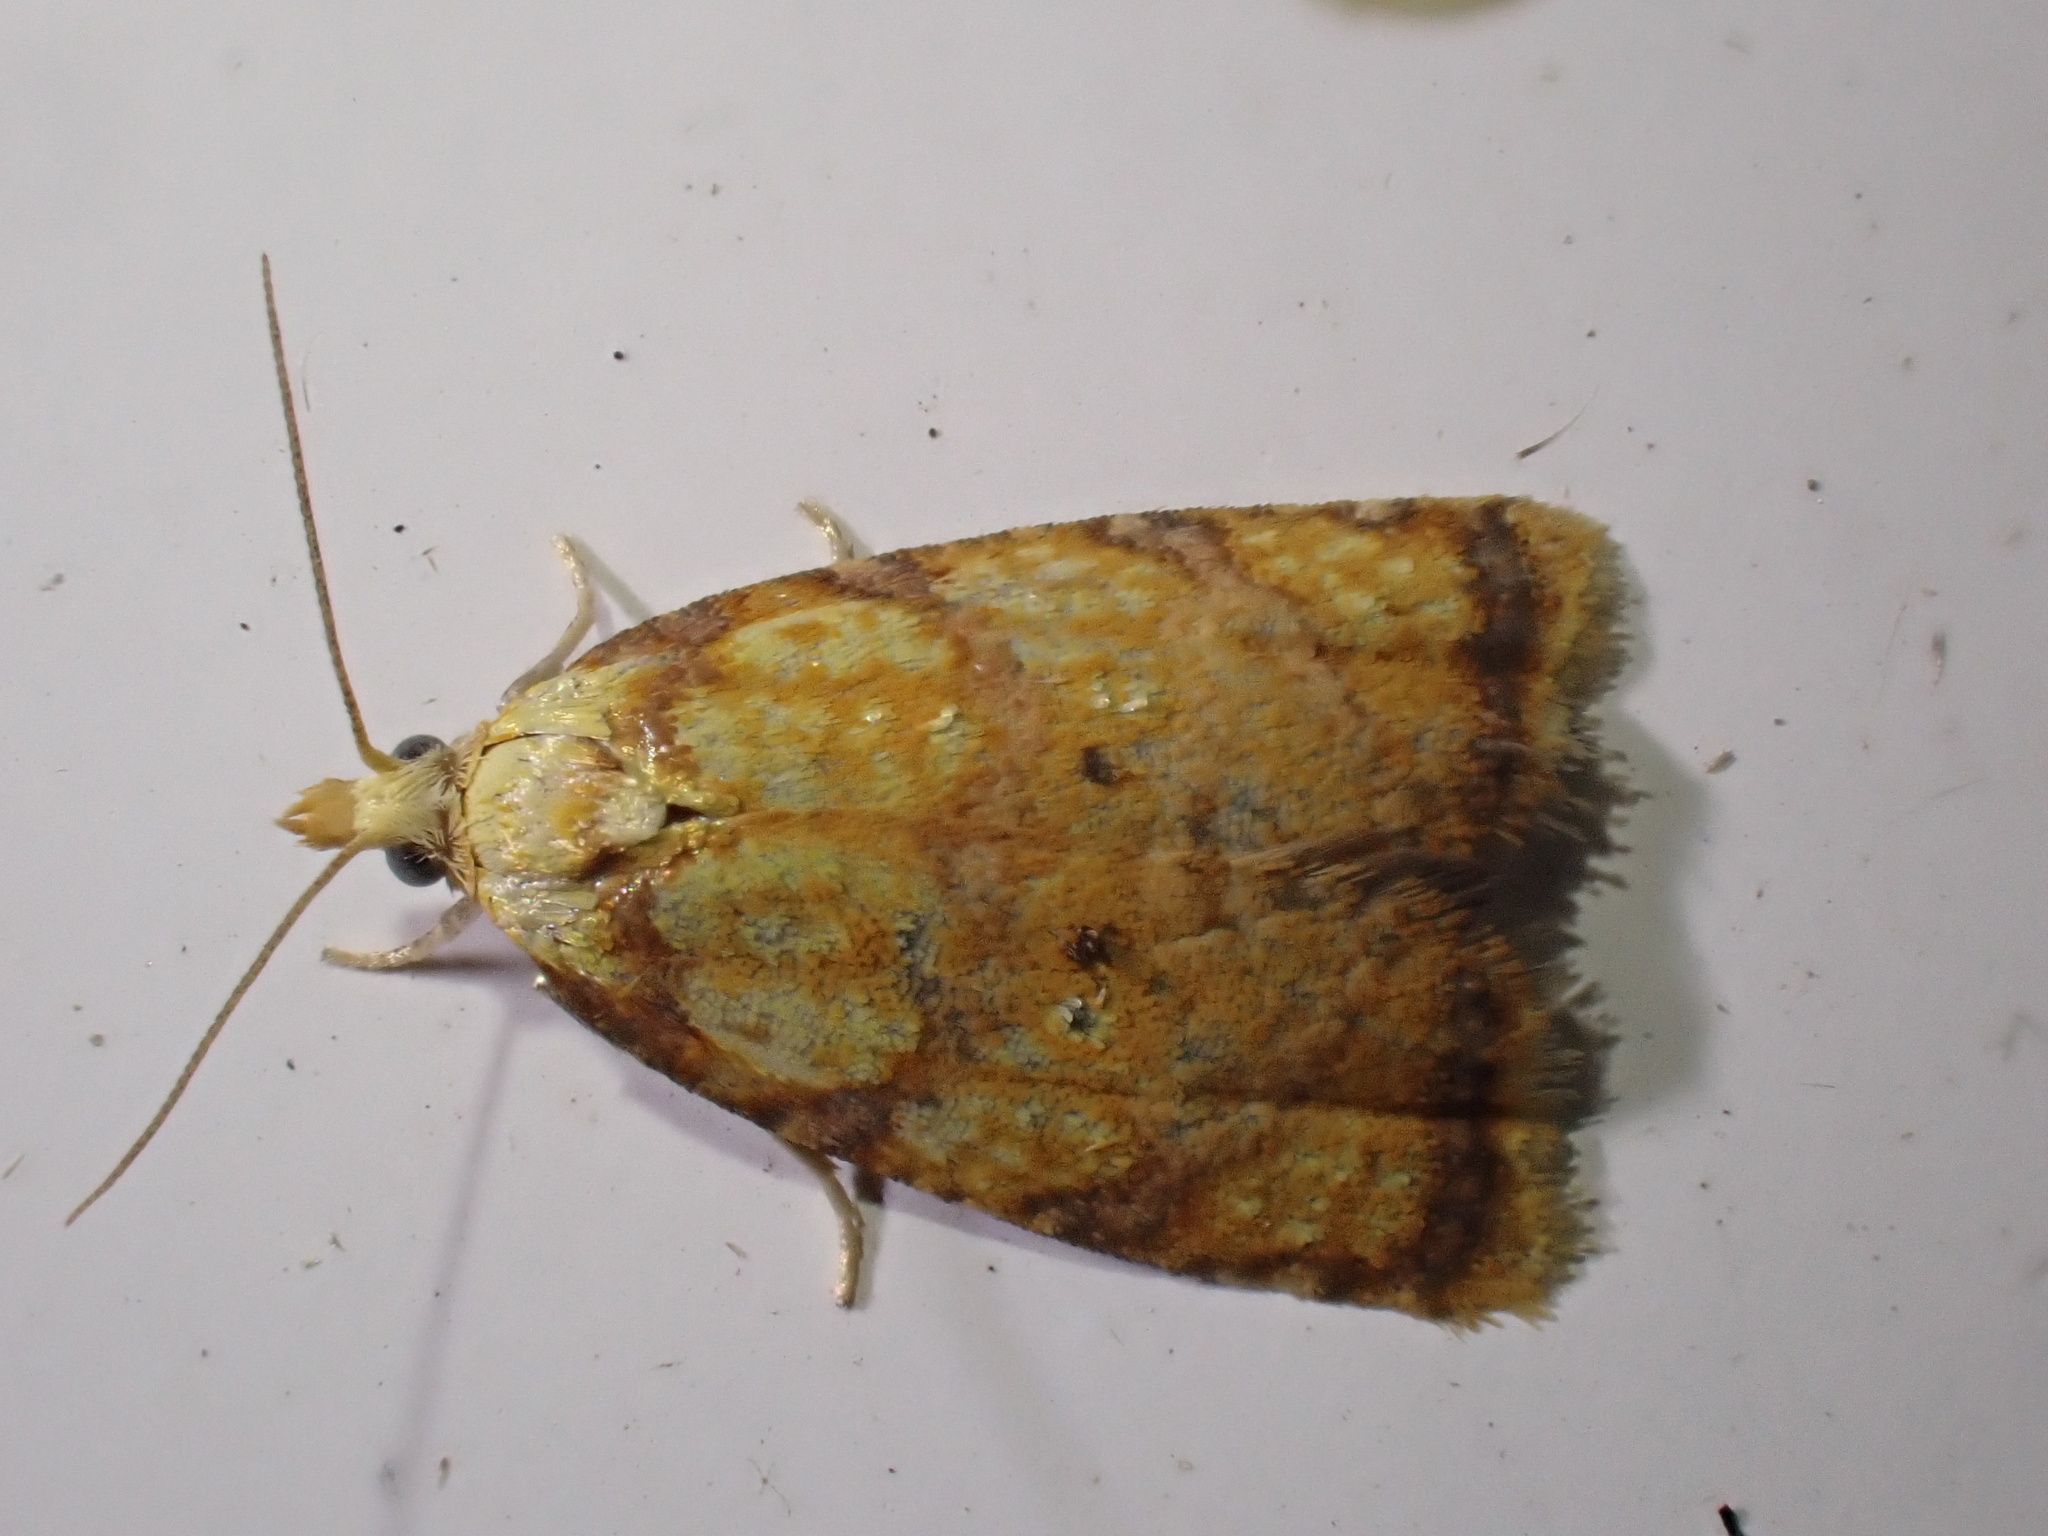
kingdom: Animalia
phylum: Arthropoda
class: Insecta
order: Lepidoptera
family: Tortricidae
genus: Acleris
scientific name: Acleris bergmanniana
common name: Yellow rose button
